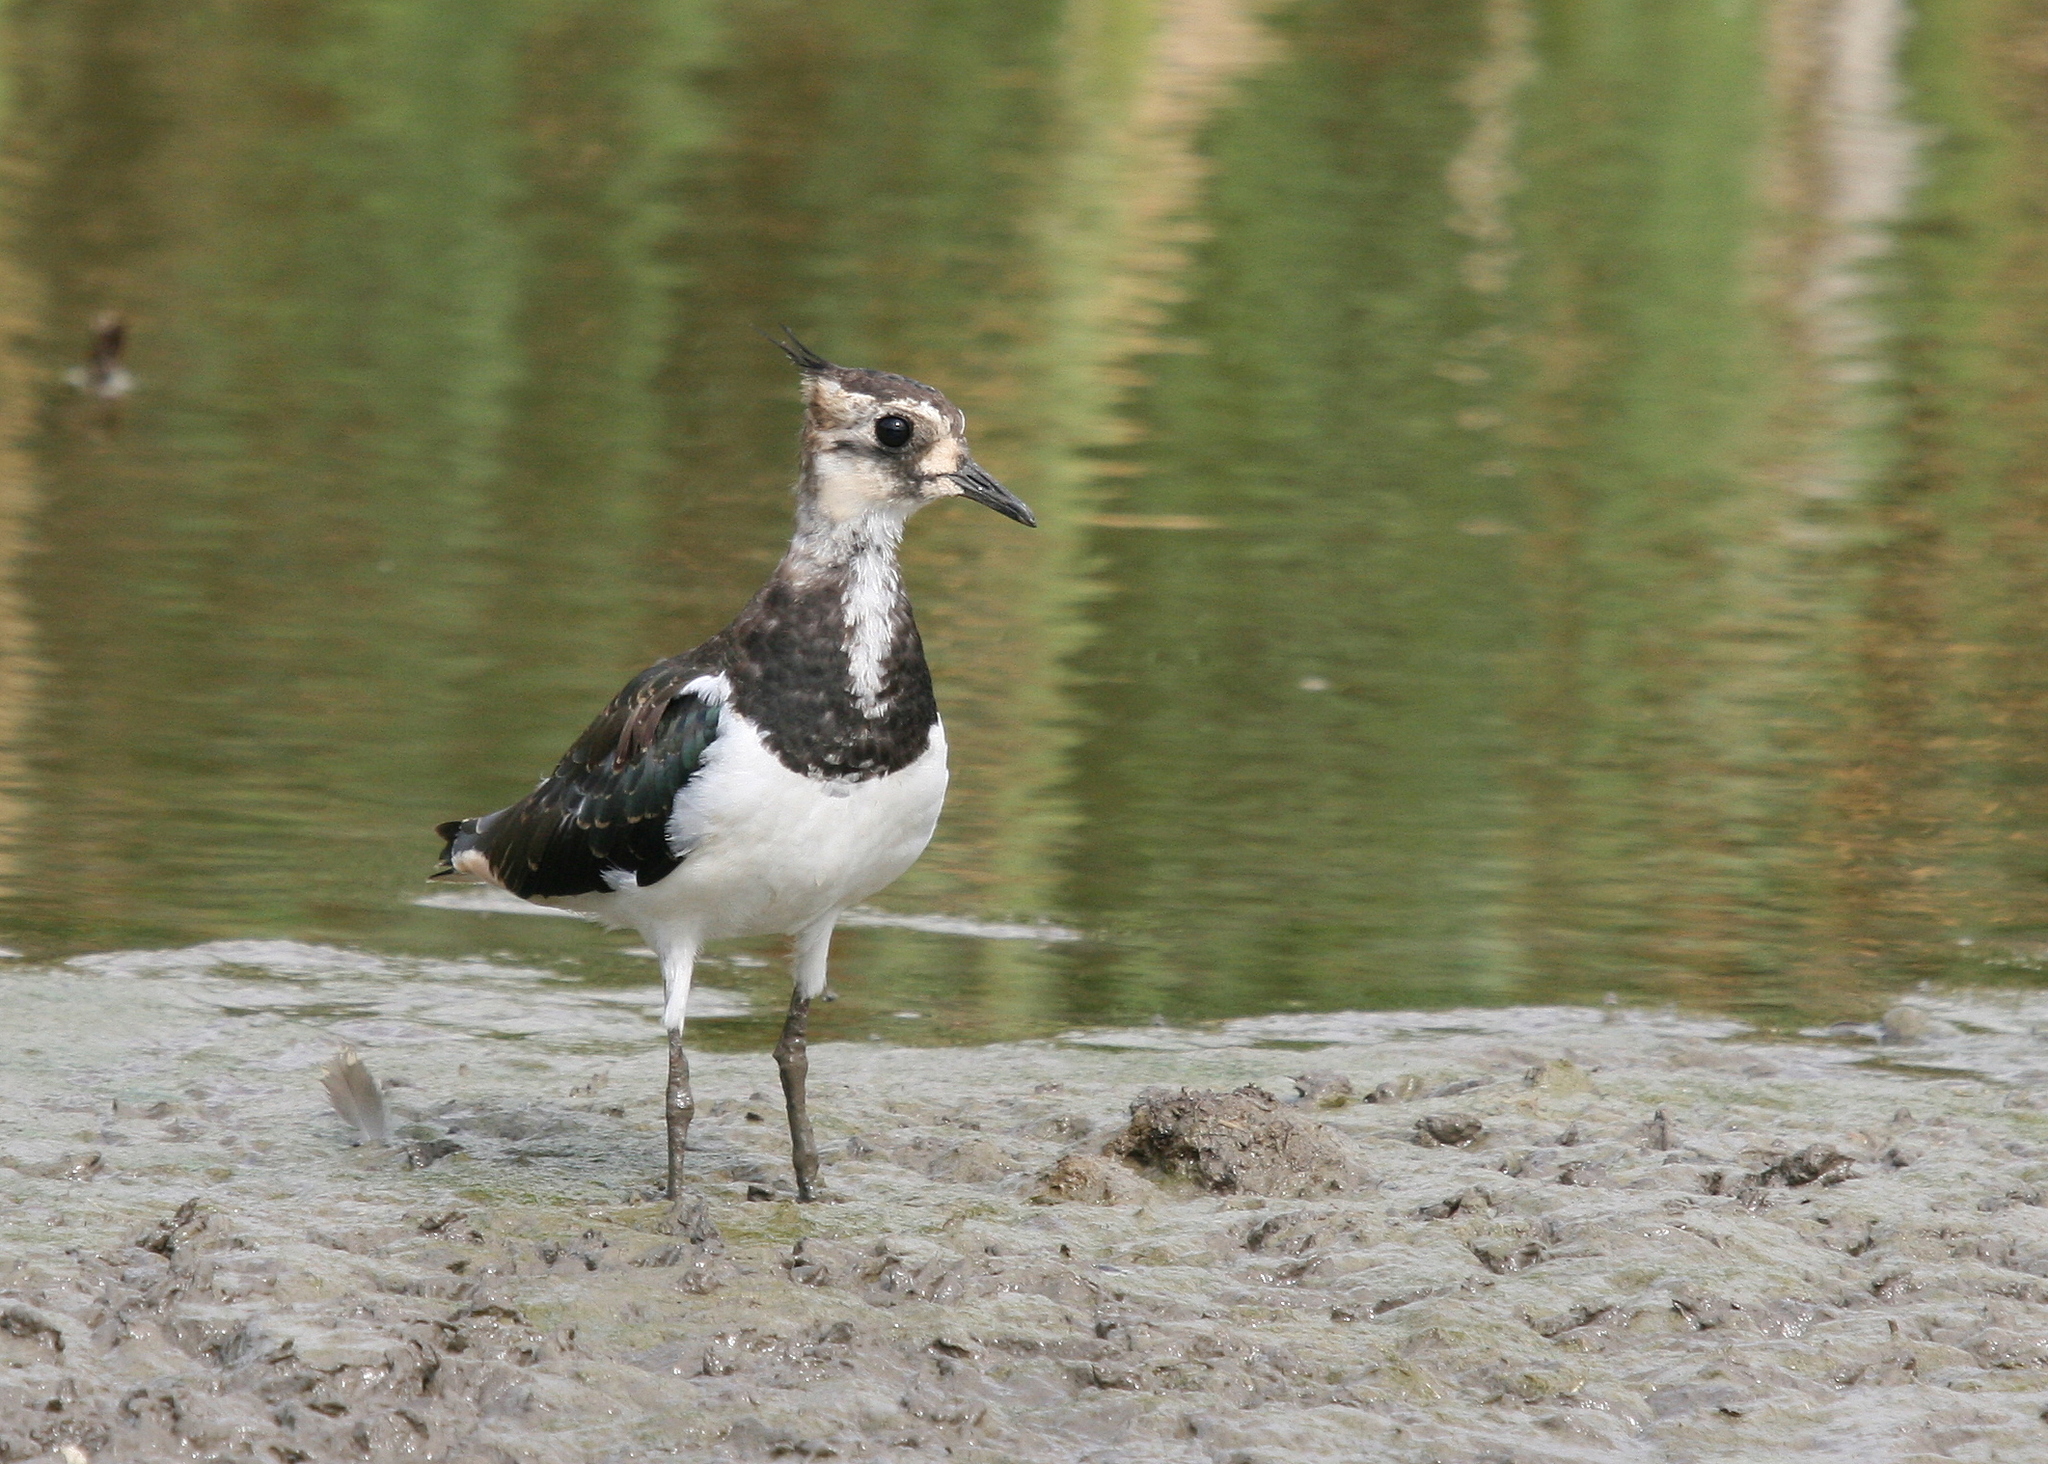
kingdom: Animalia
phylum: Chordata
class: Aves
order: Charadriiformes
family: Charadriidae
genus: Vanellus
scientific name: Vanellus vanellus
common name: Northern lapwing
